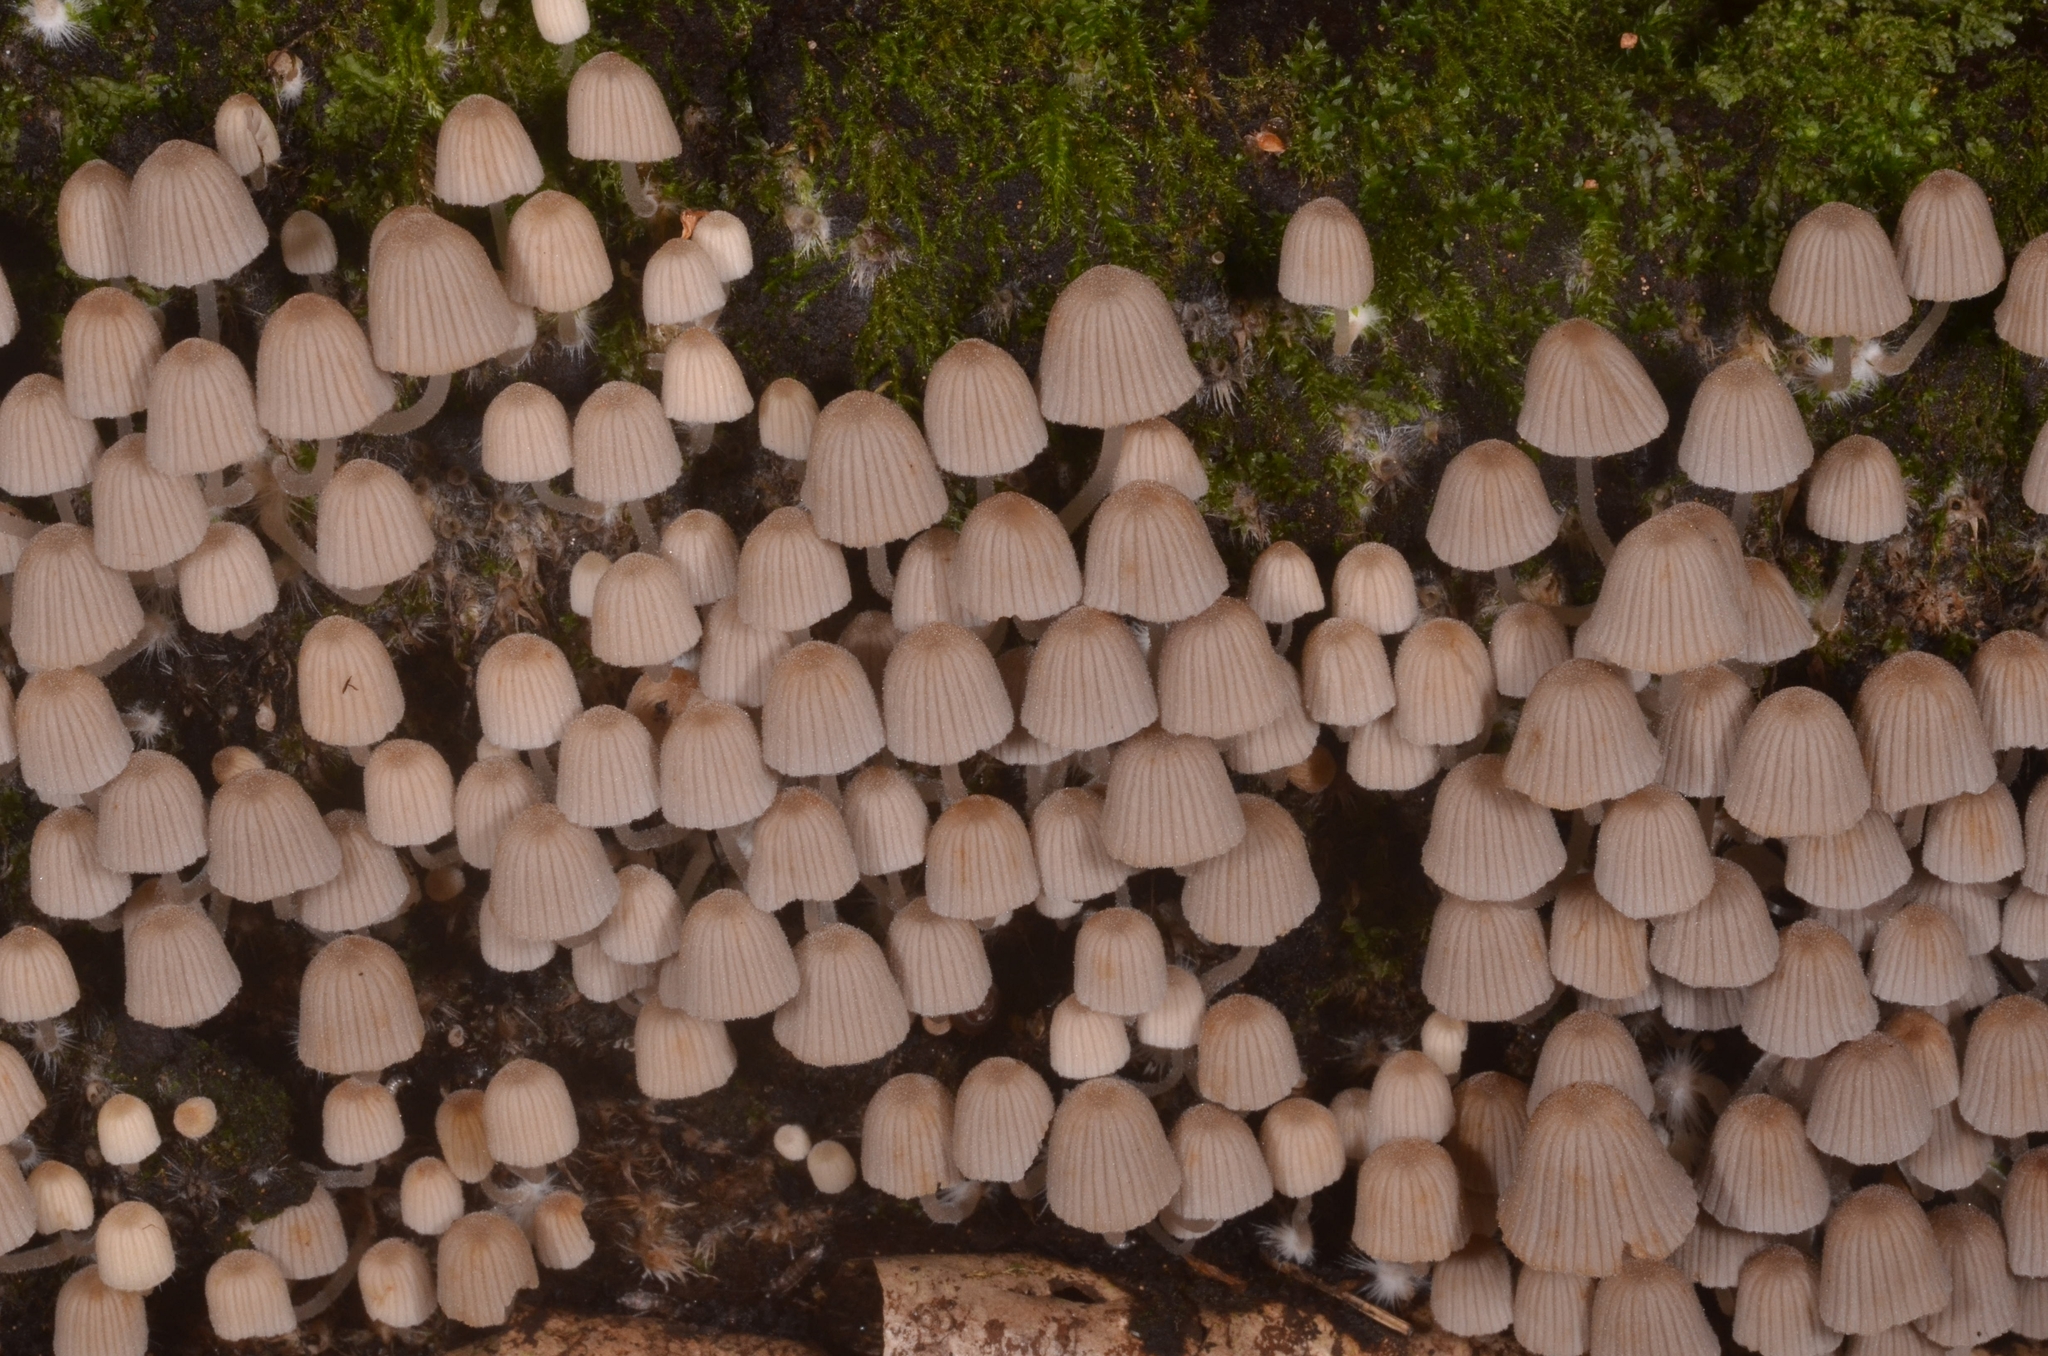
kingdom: Fungi
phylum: Basidiomycota
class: Agaricomycetes
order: Agaricales
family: Psathyrellaceae
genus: Coprinellus
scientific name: Coprinellus disseminatus
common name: Fairies' bonnets
